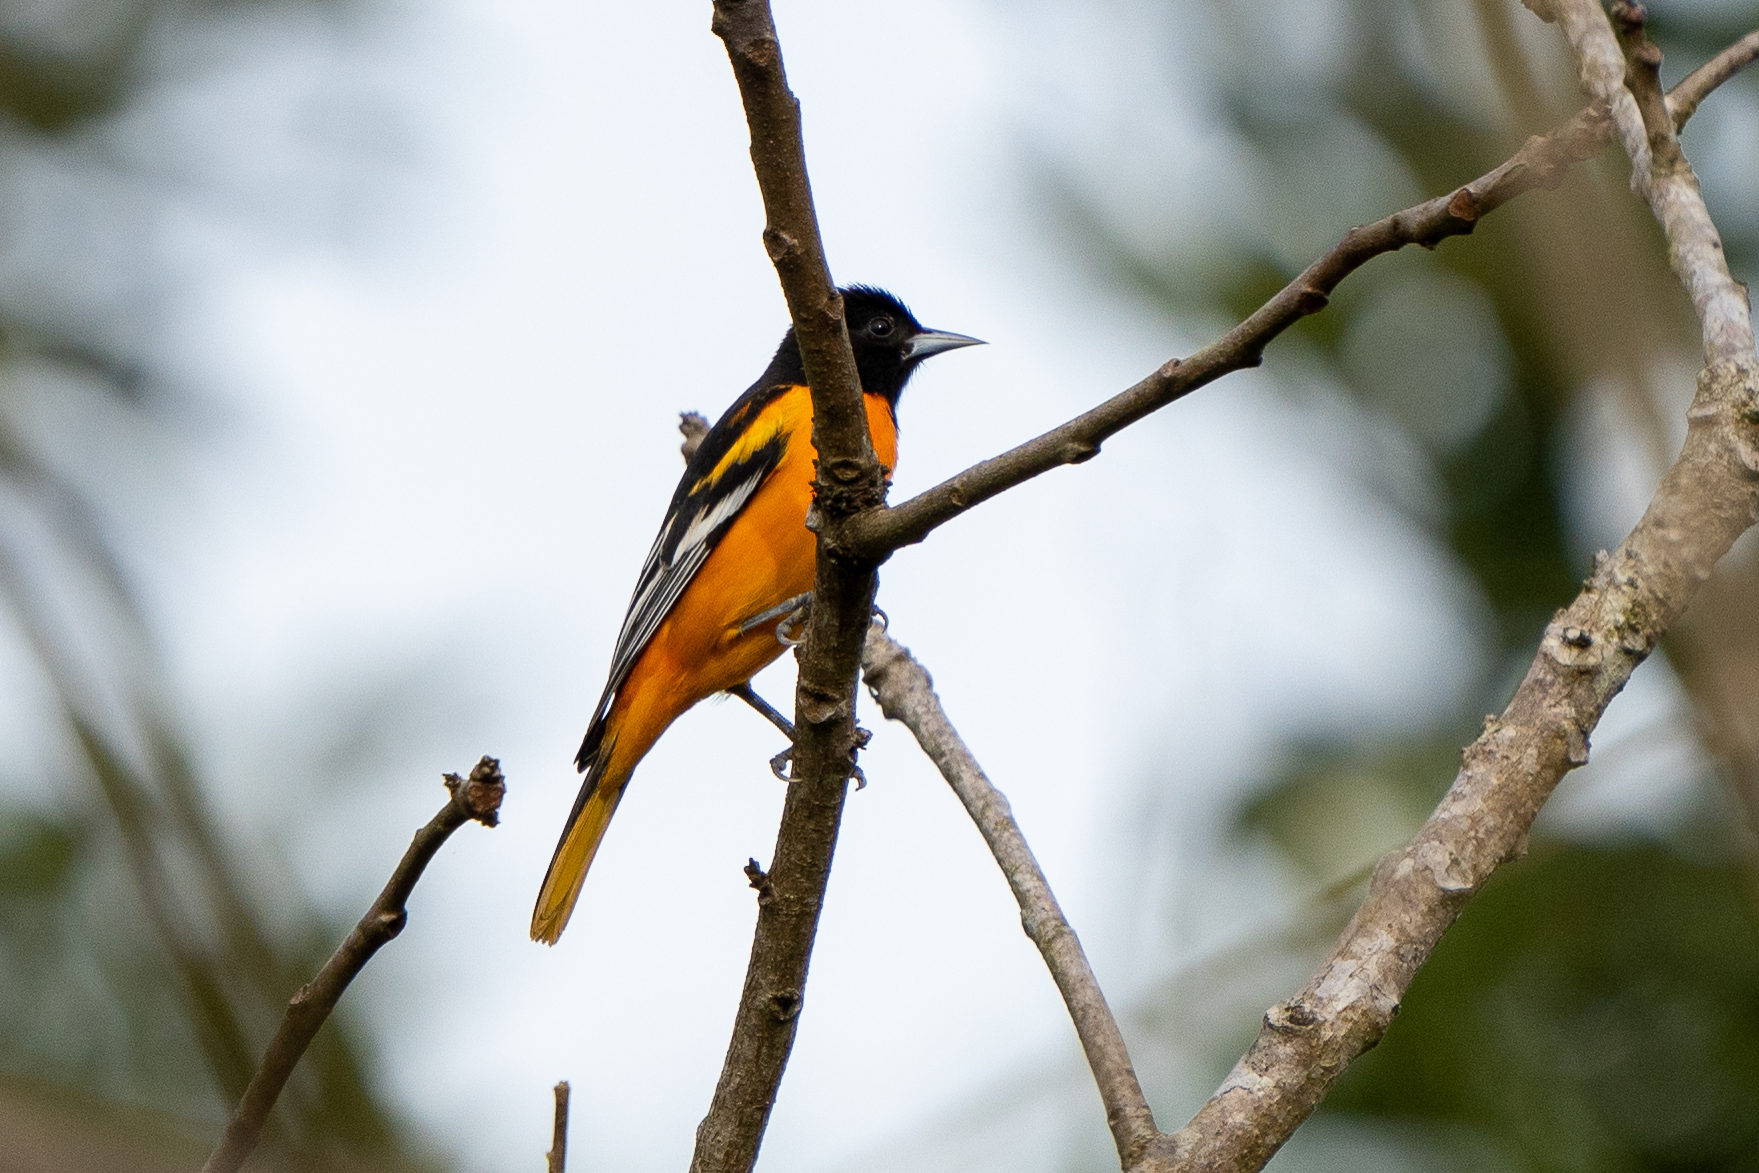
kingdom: Animalia
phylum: Chordata
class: Aves
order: Passeriformes
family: Icteridae
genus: Icterus
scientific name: Icterus galbula
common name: Baltimore oriole
